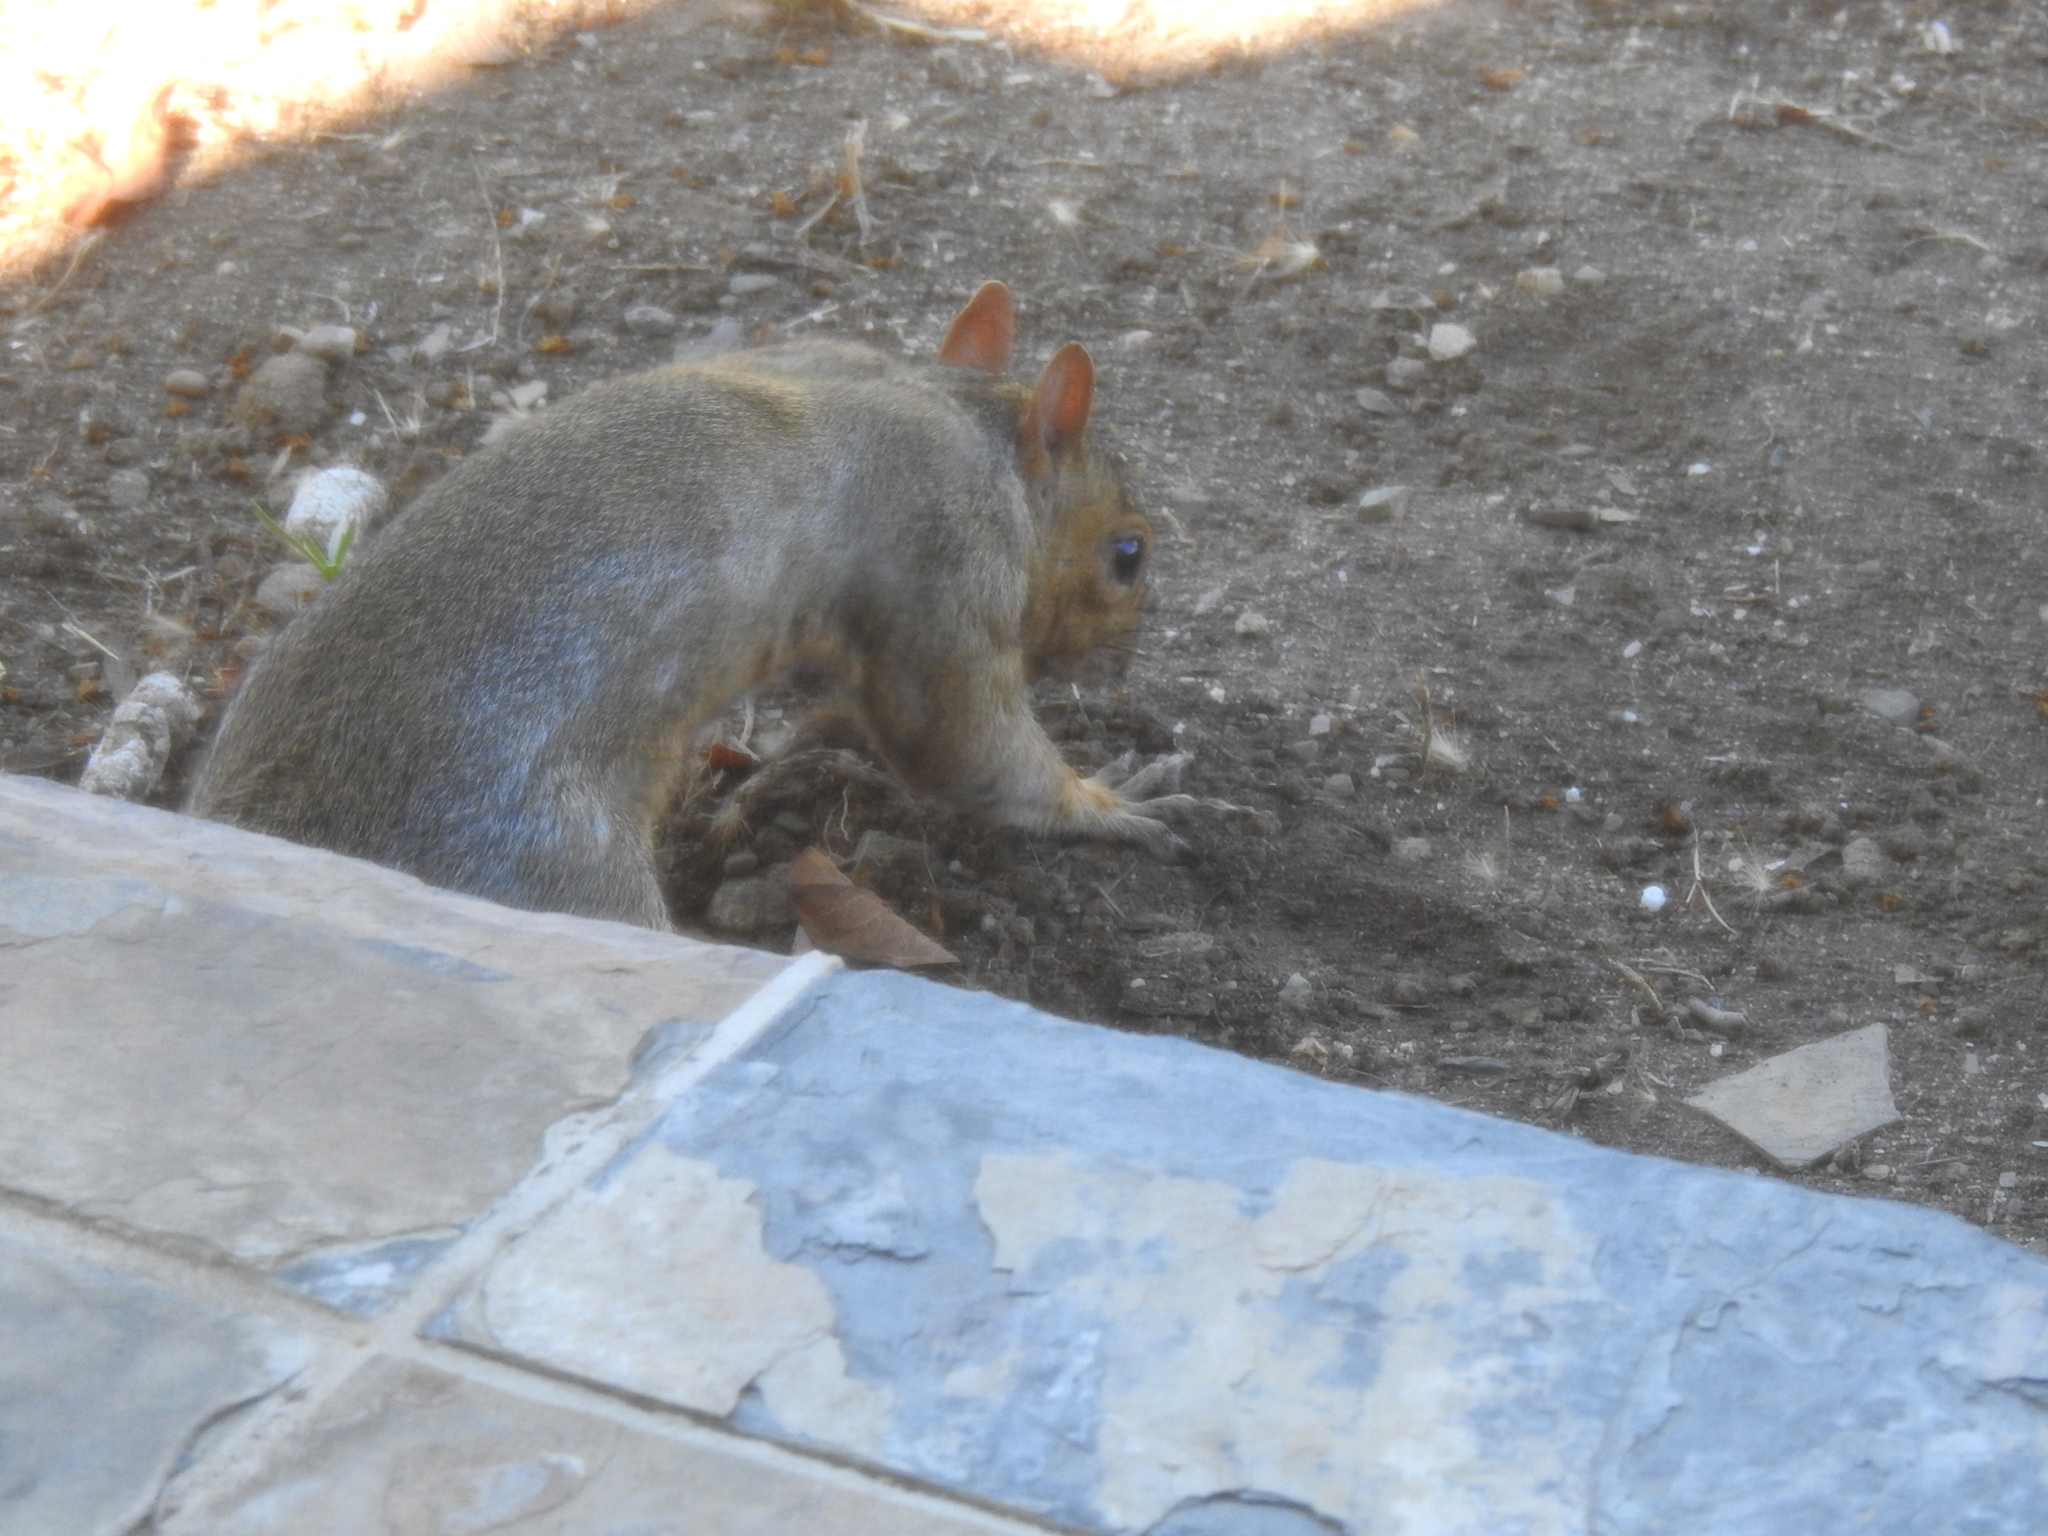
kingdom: Animalia
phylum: Chordata
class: Mammalia
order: Rodentia
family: Sciuridae
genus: Sciurus
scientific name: Sciurus carolinensis
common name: Eastern gray squirrel
